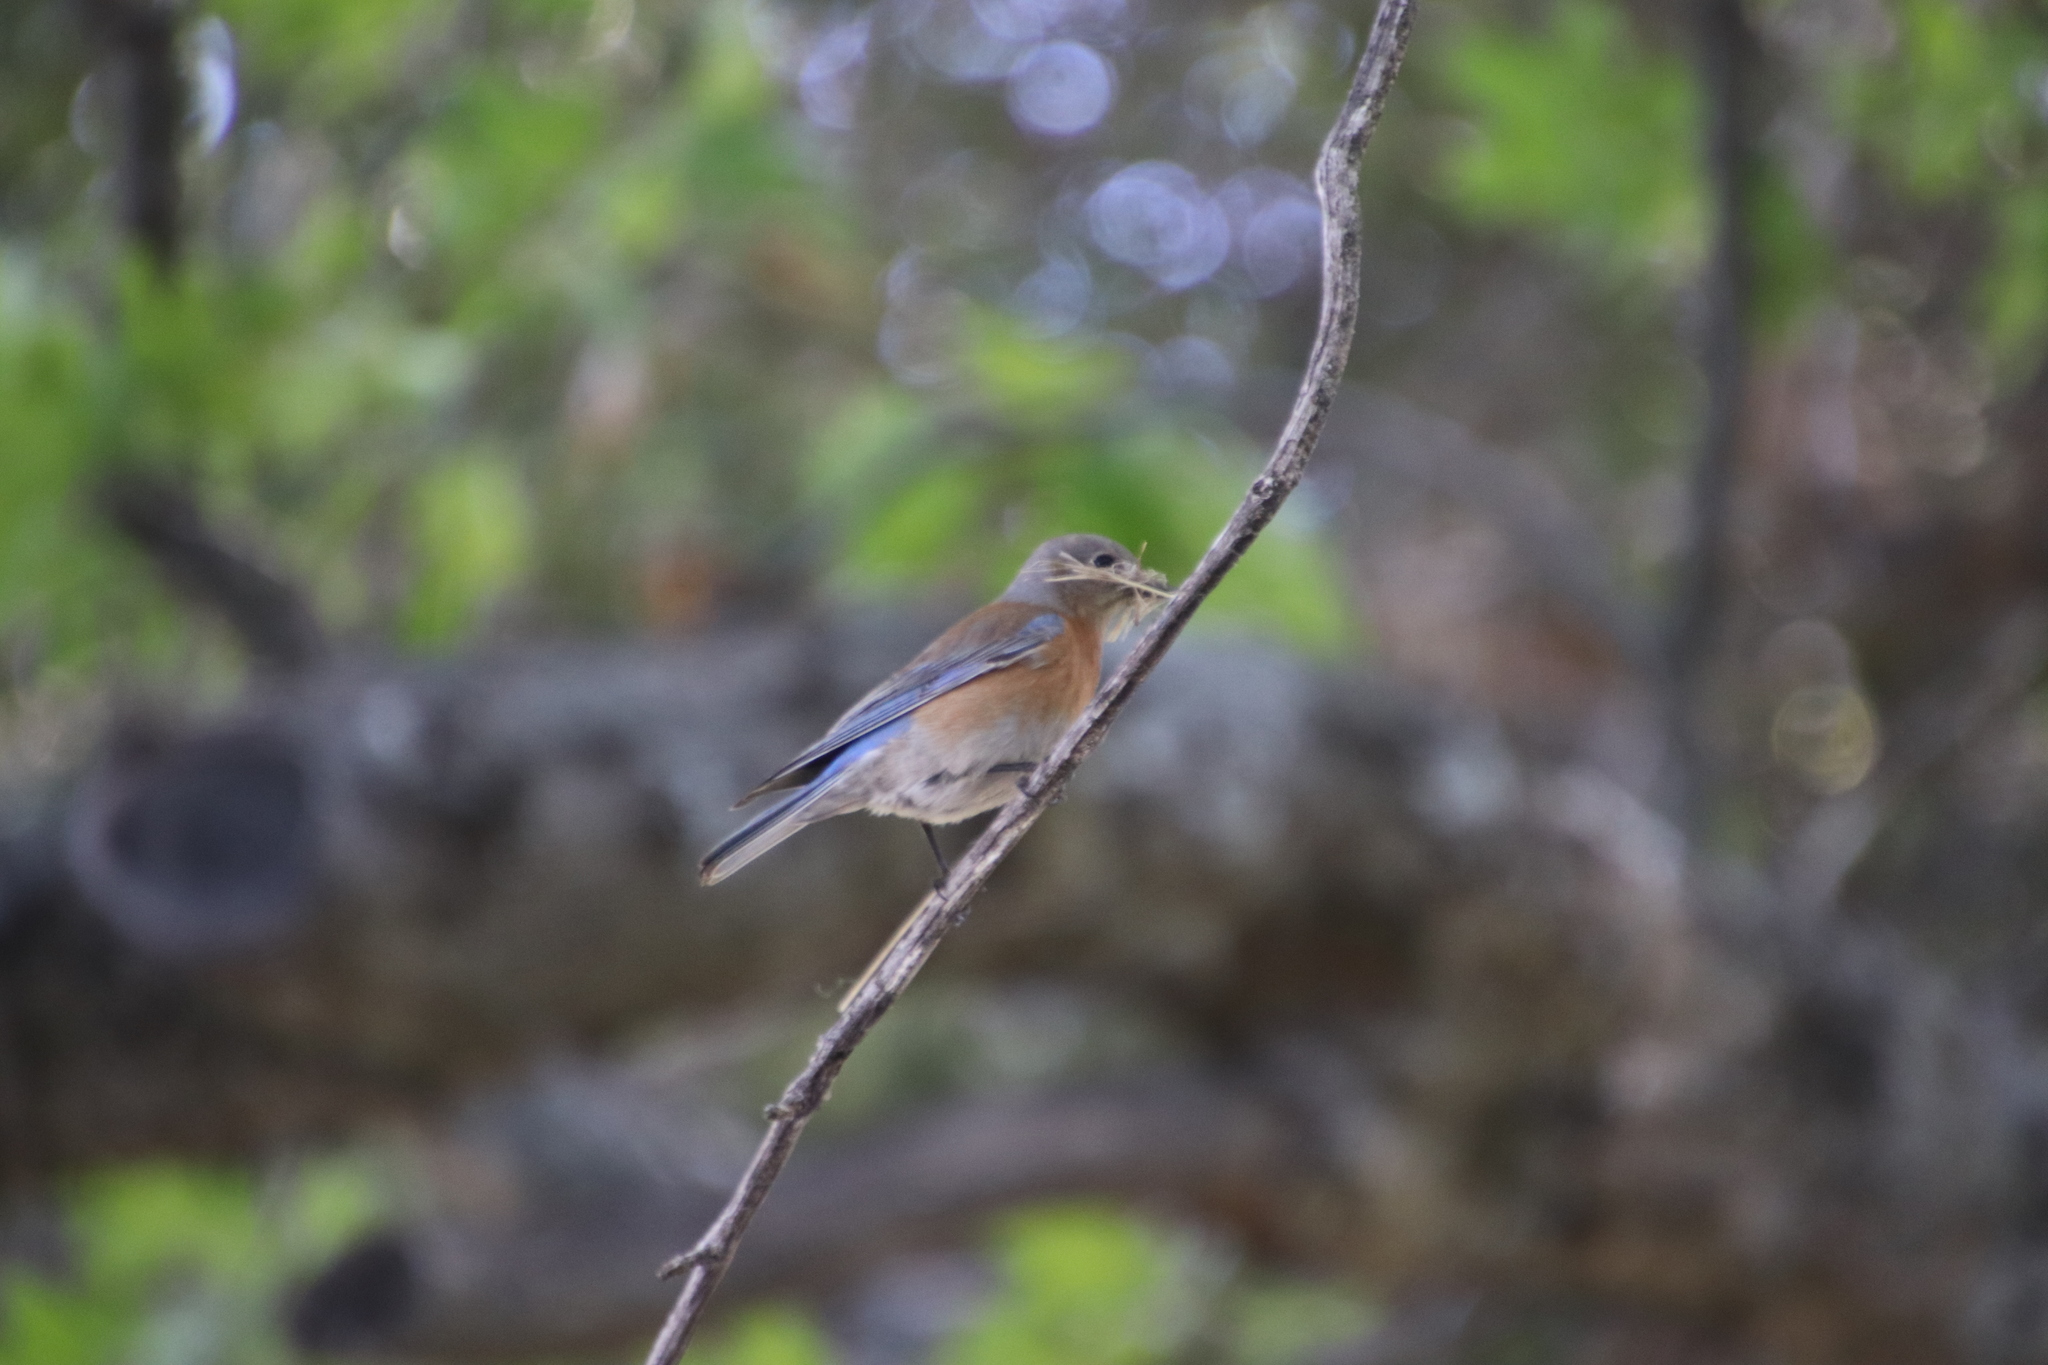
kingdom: Animalia
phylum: Chordata
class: Aves
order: Passeriformes
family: Turdidae
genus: Sialia
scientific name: Sialia mexicana
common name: Western bluebird
